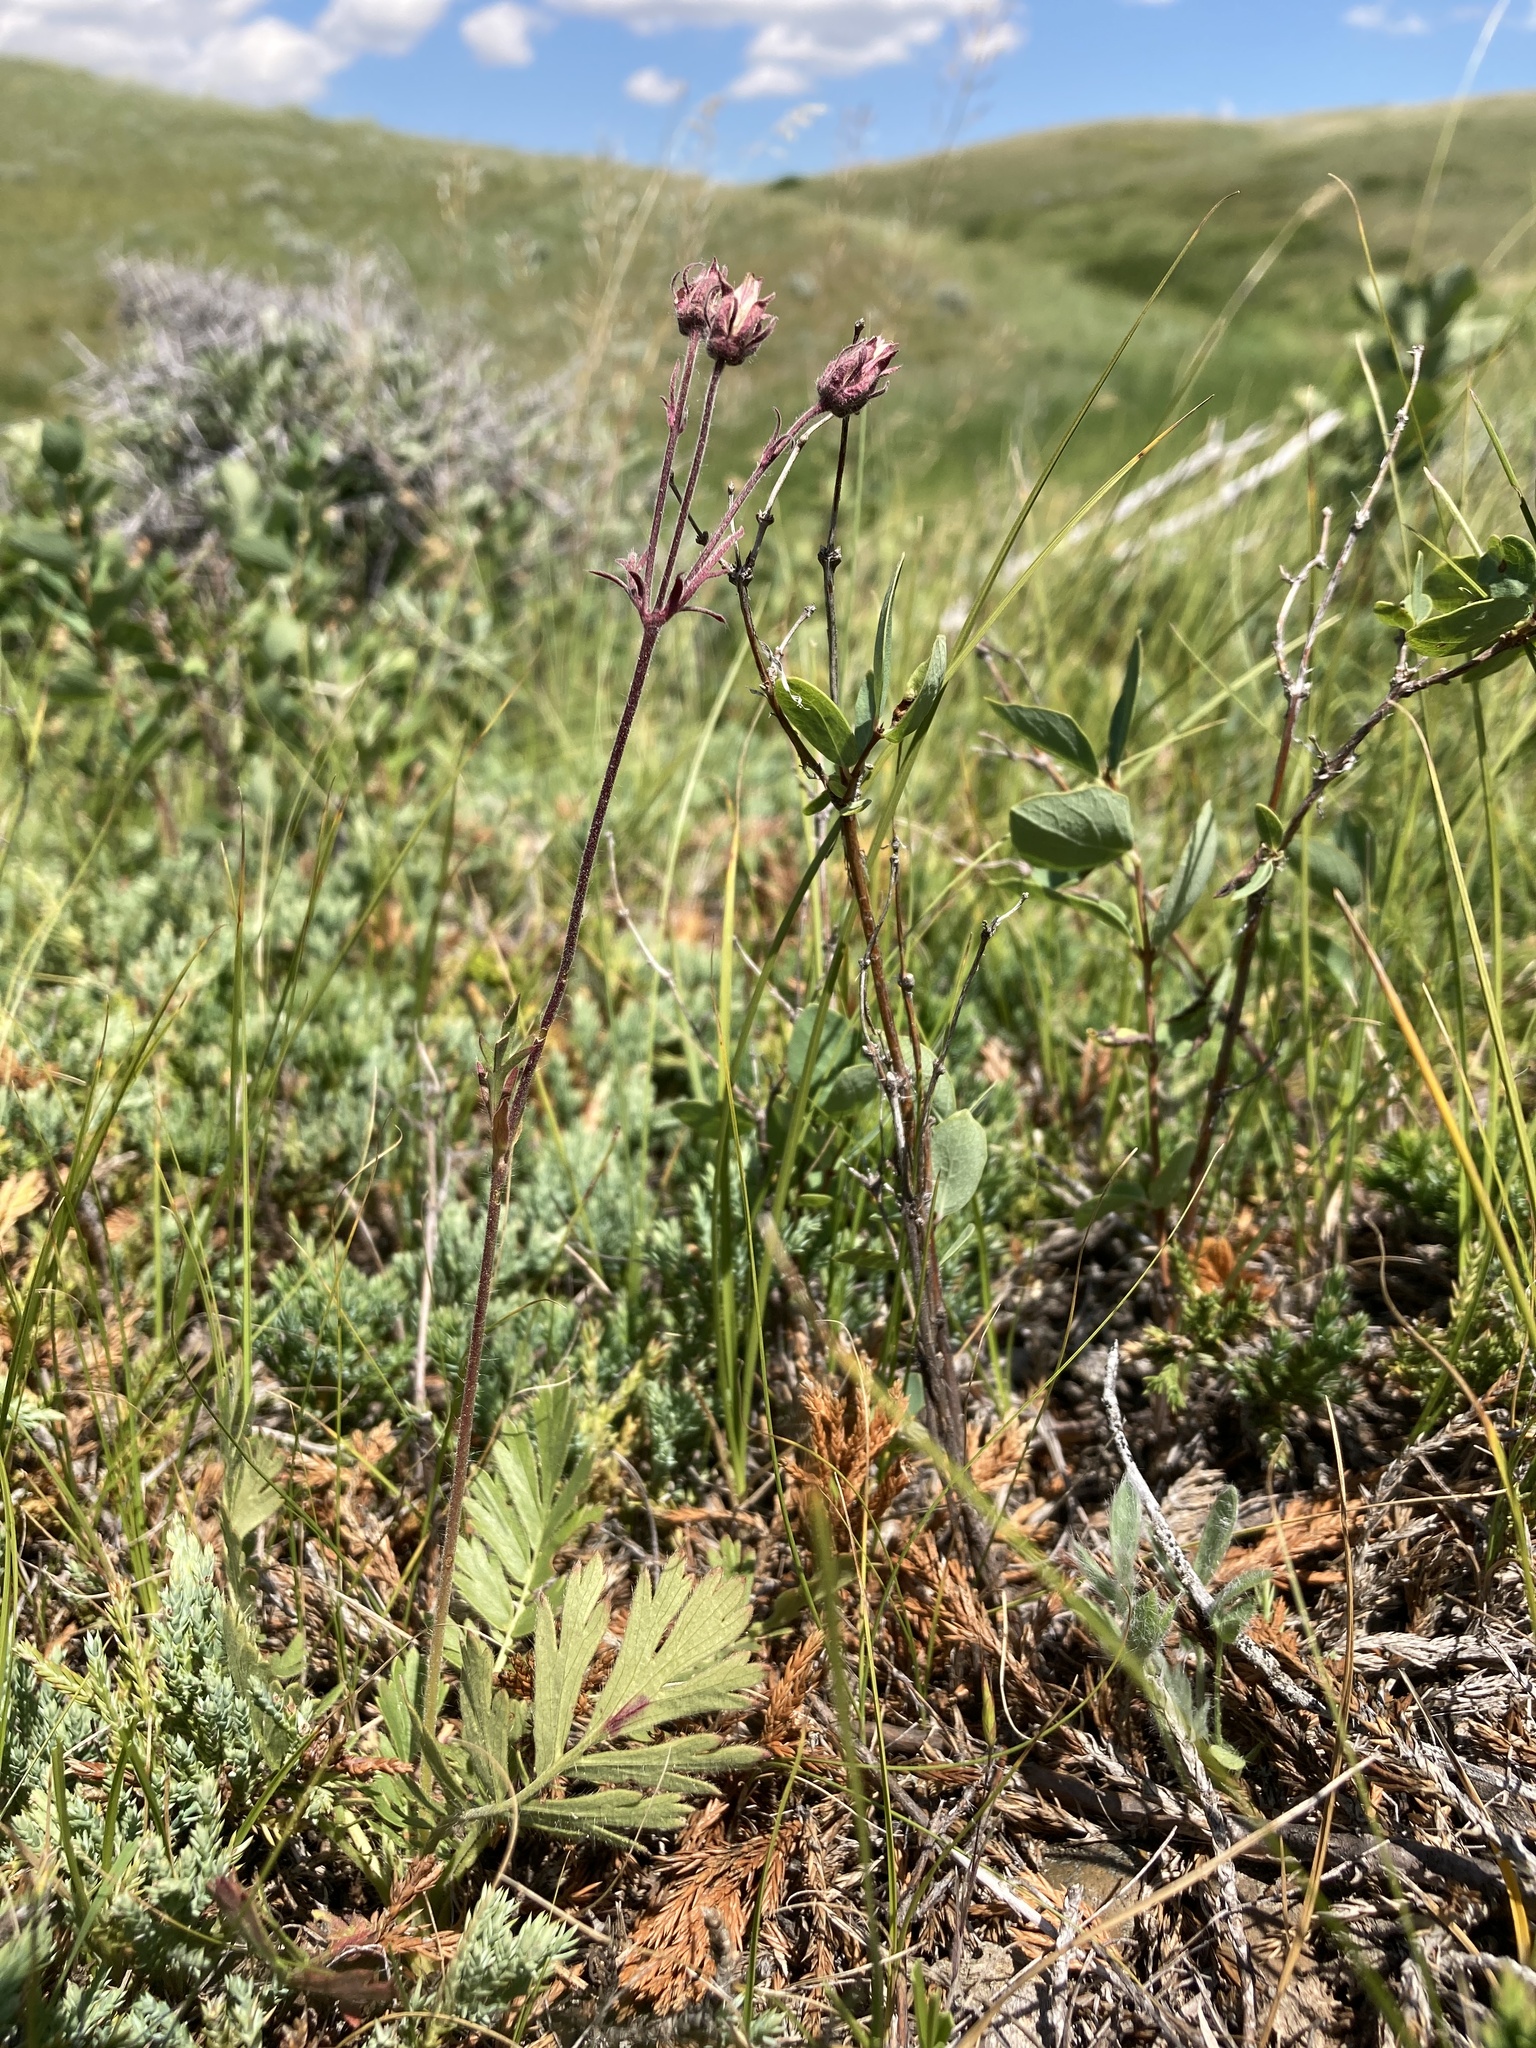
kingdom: Plantae
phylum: Tracheophyta
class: Magnoliopsida
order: Rosales
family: Rosaceae
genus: Geum
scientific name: Geum triflorum
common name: Old man's whiskers
